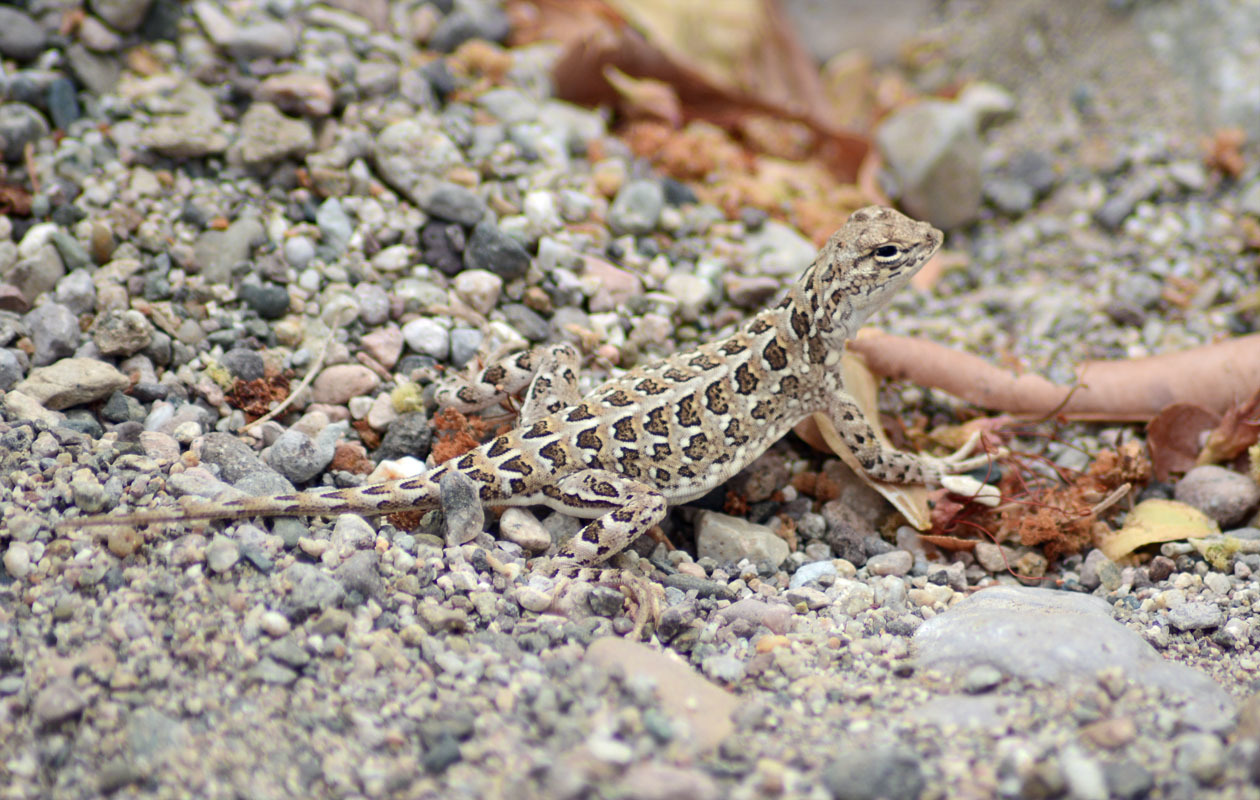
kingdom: Animalia
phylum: Chordata
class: Squamata
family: Phrynosomatidae
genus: Holbrookia
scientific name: Holbrookia elegans
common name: Elegant earless lizard
